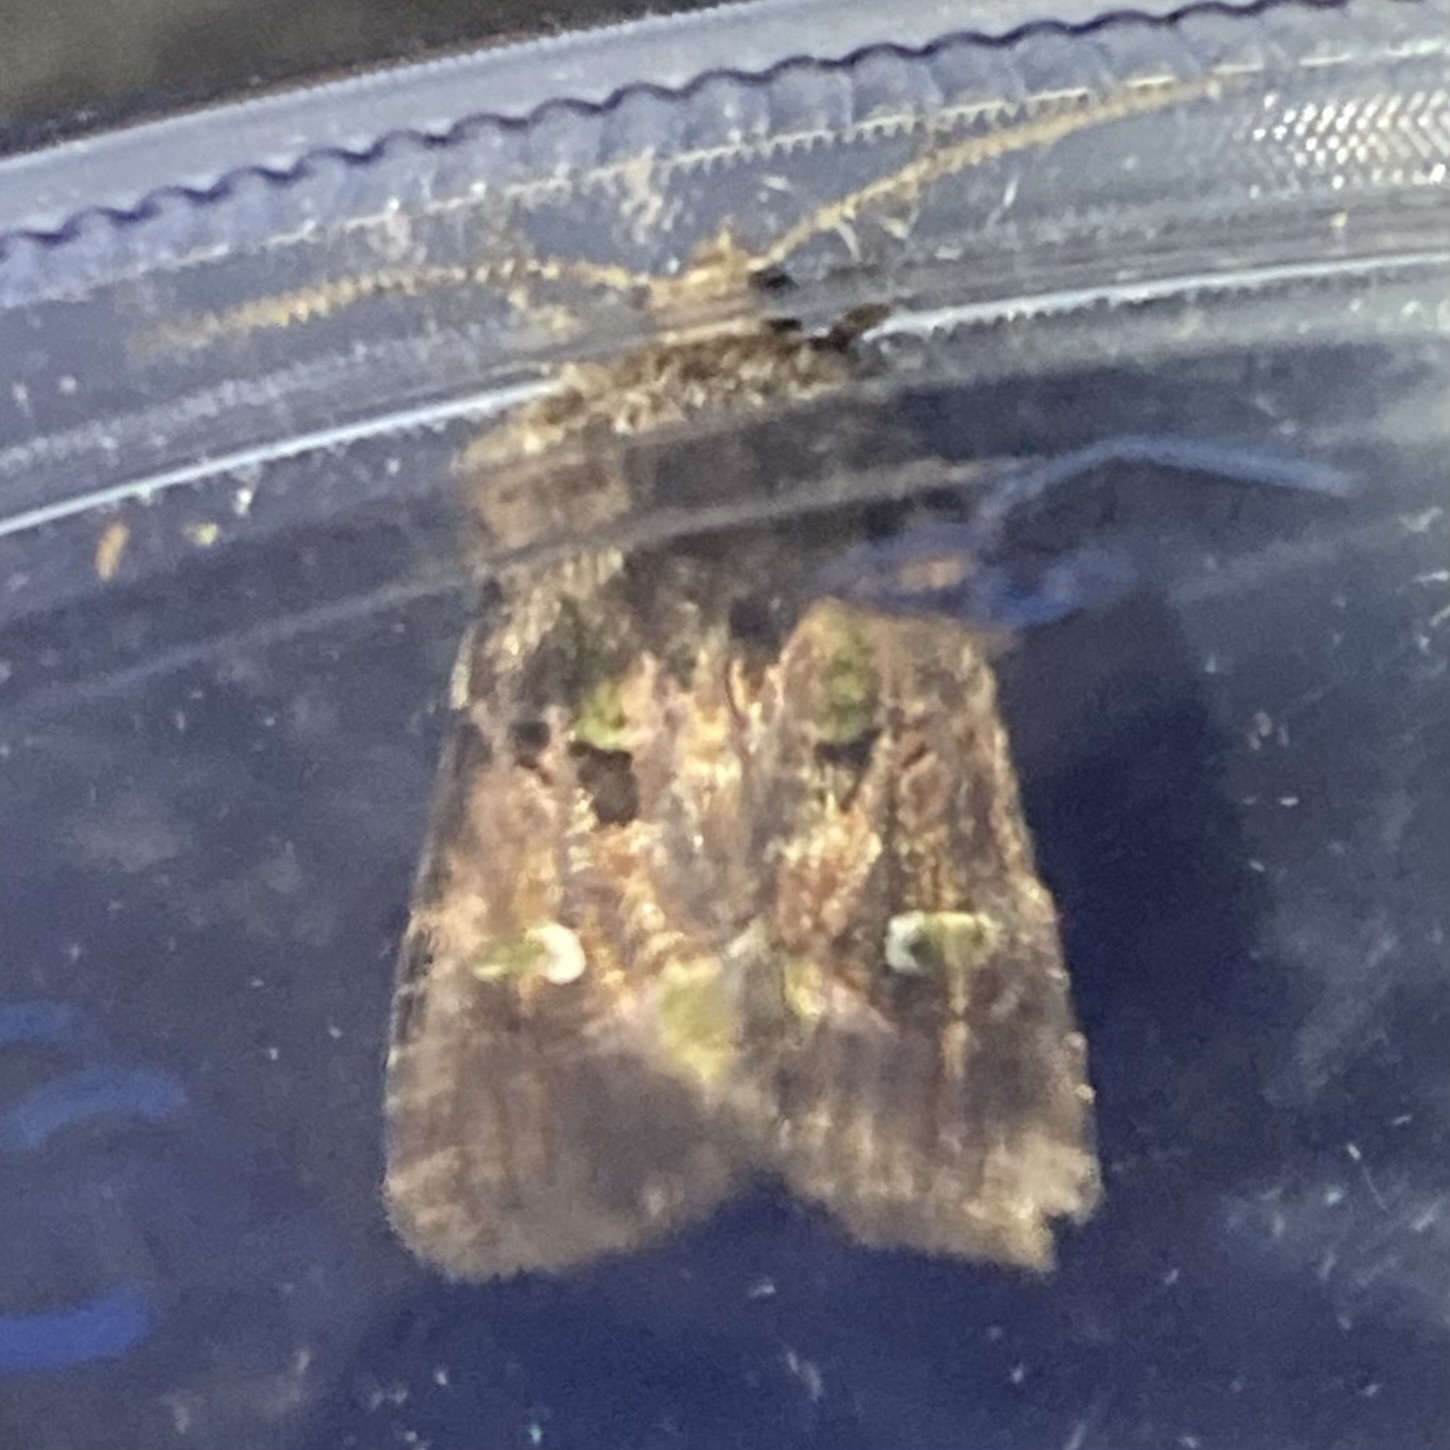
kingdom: Animalia
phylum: Arthropoda
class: Insecta
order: Lepidoptera
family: Noctuidae
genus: Lacinipolia
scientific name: Lacinipolia renigera
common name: Kidney-spotted minor
